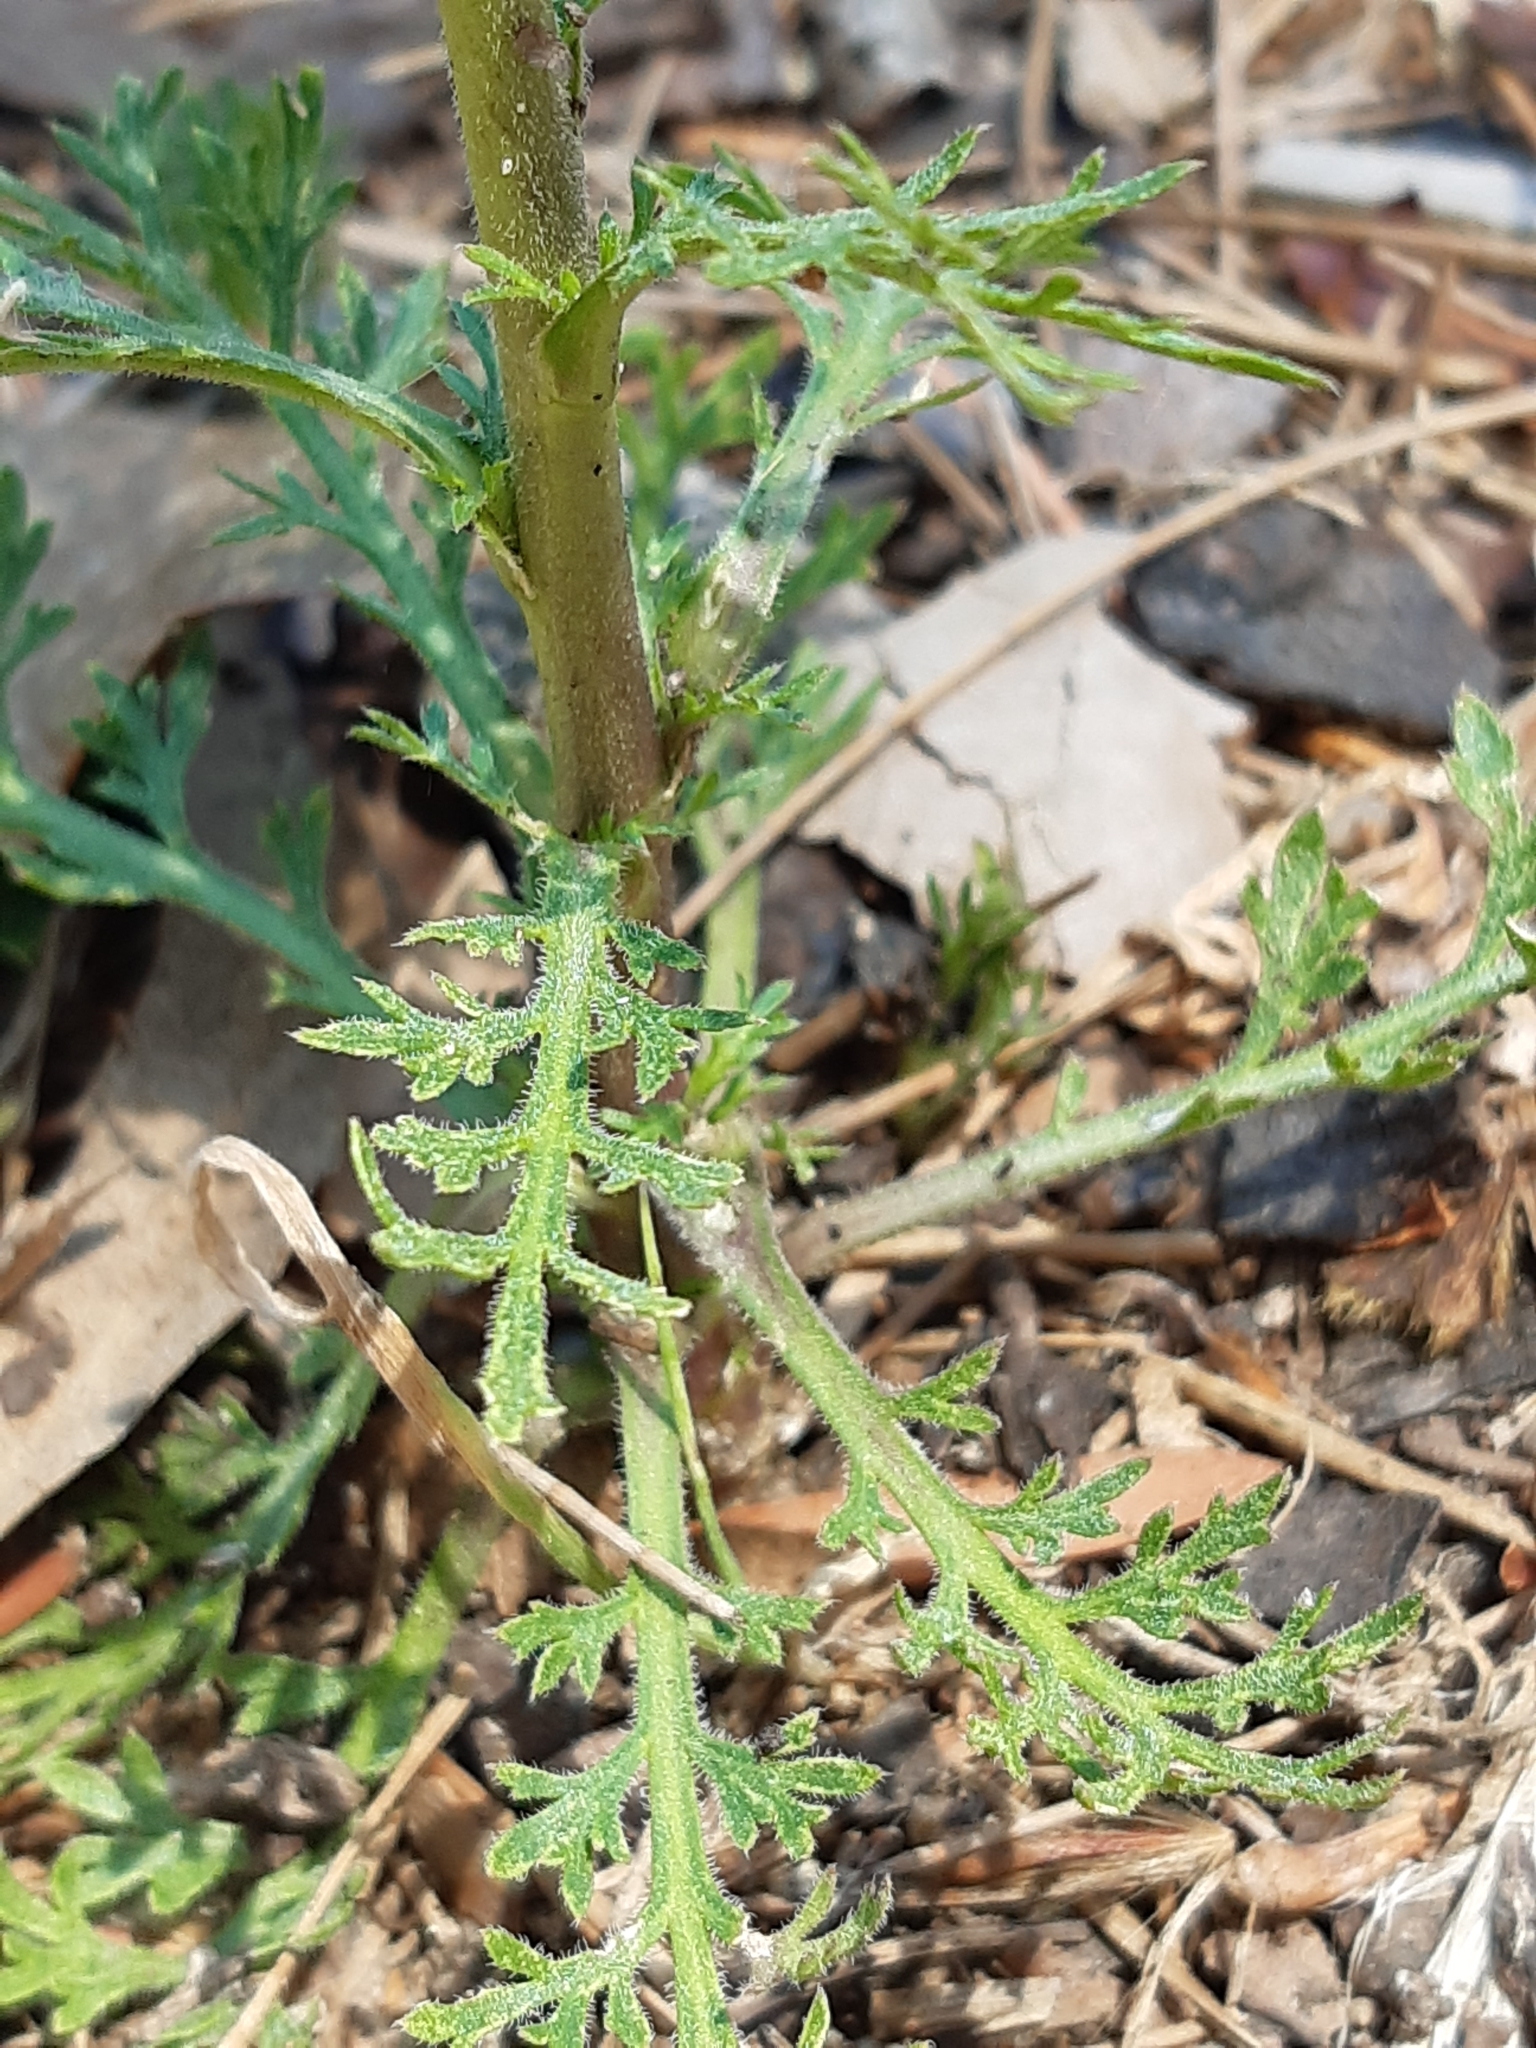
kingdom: Plantae
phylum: Tracheophyta
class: Magnoliopsida
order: Brassicales
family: Brassicaceae
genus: Lepidium
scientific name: Lepidium bonariense
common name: Argentine pepperwort
